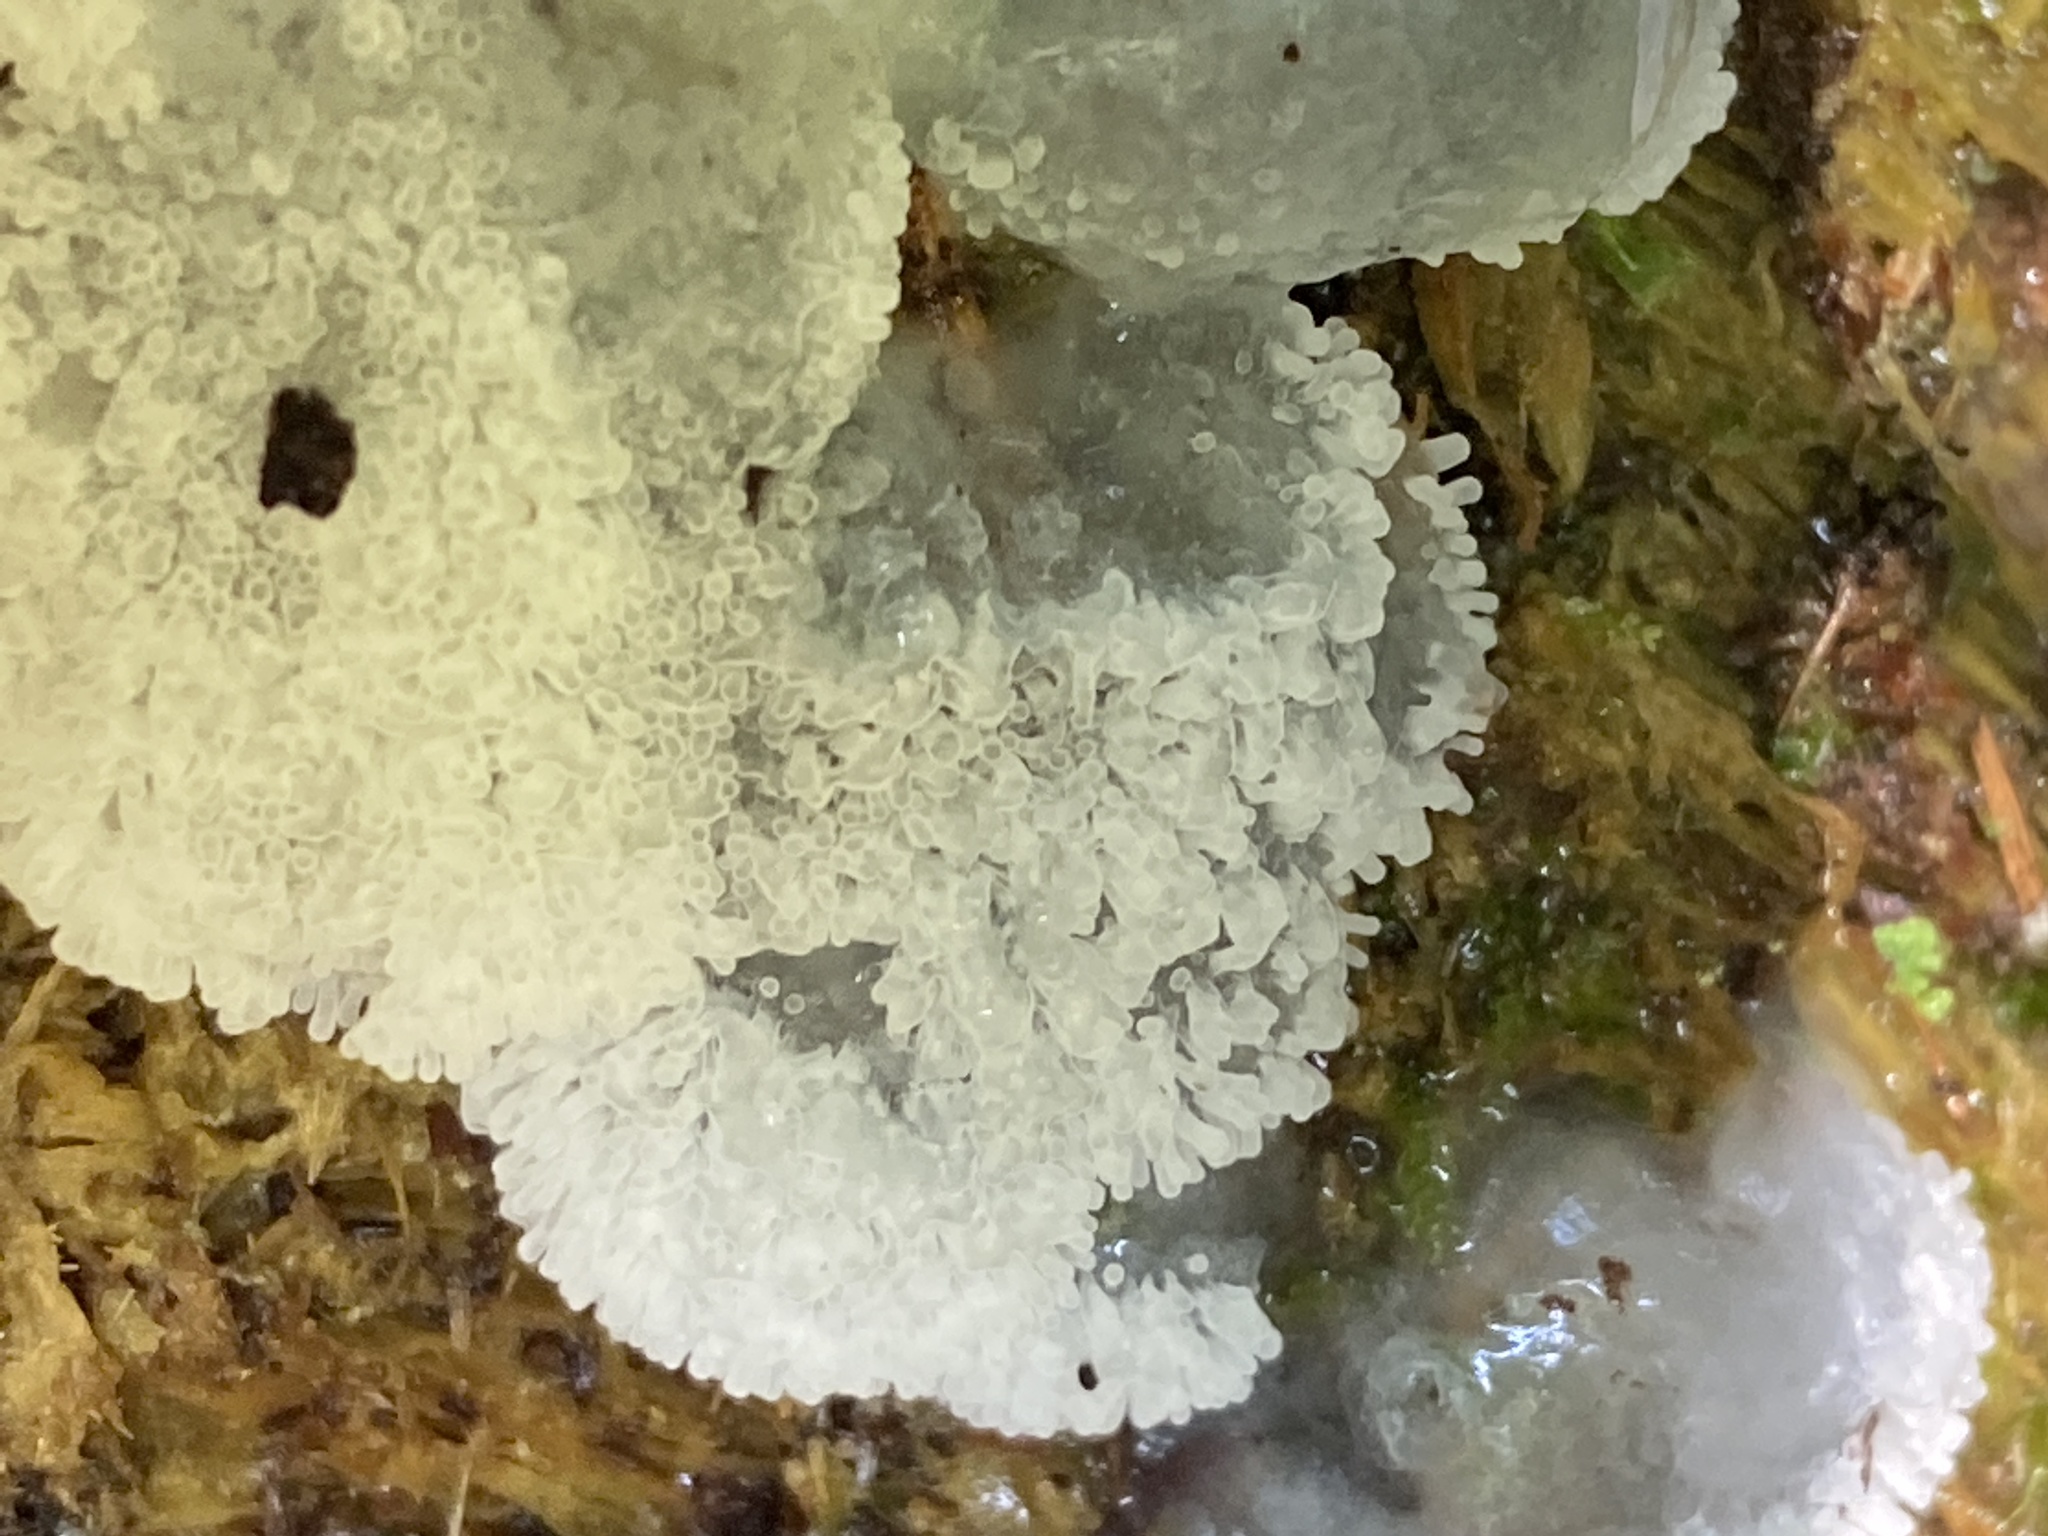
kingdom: Protozoa
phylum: Mycetozoa
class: Protosteliomycetes
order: Ceratiomyxales
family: Ceratiomyxaceae
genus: Ceratiomyxa
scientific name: Ceratiomyxa fruticulosa
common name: Honeycomb coral slime mold
